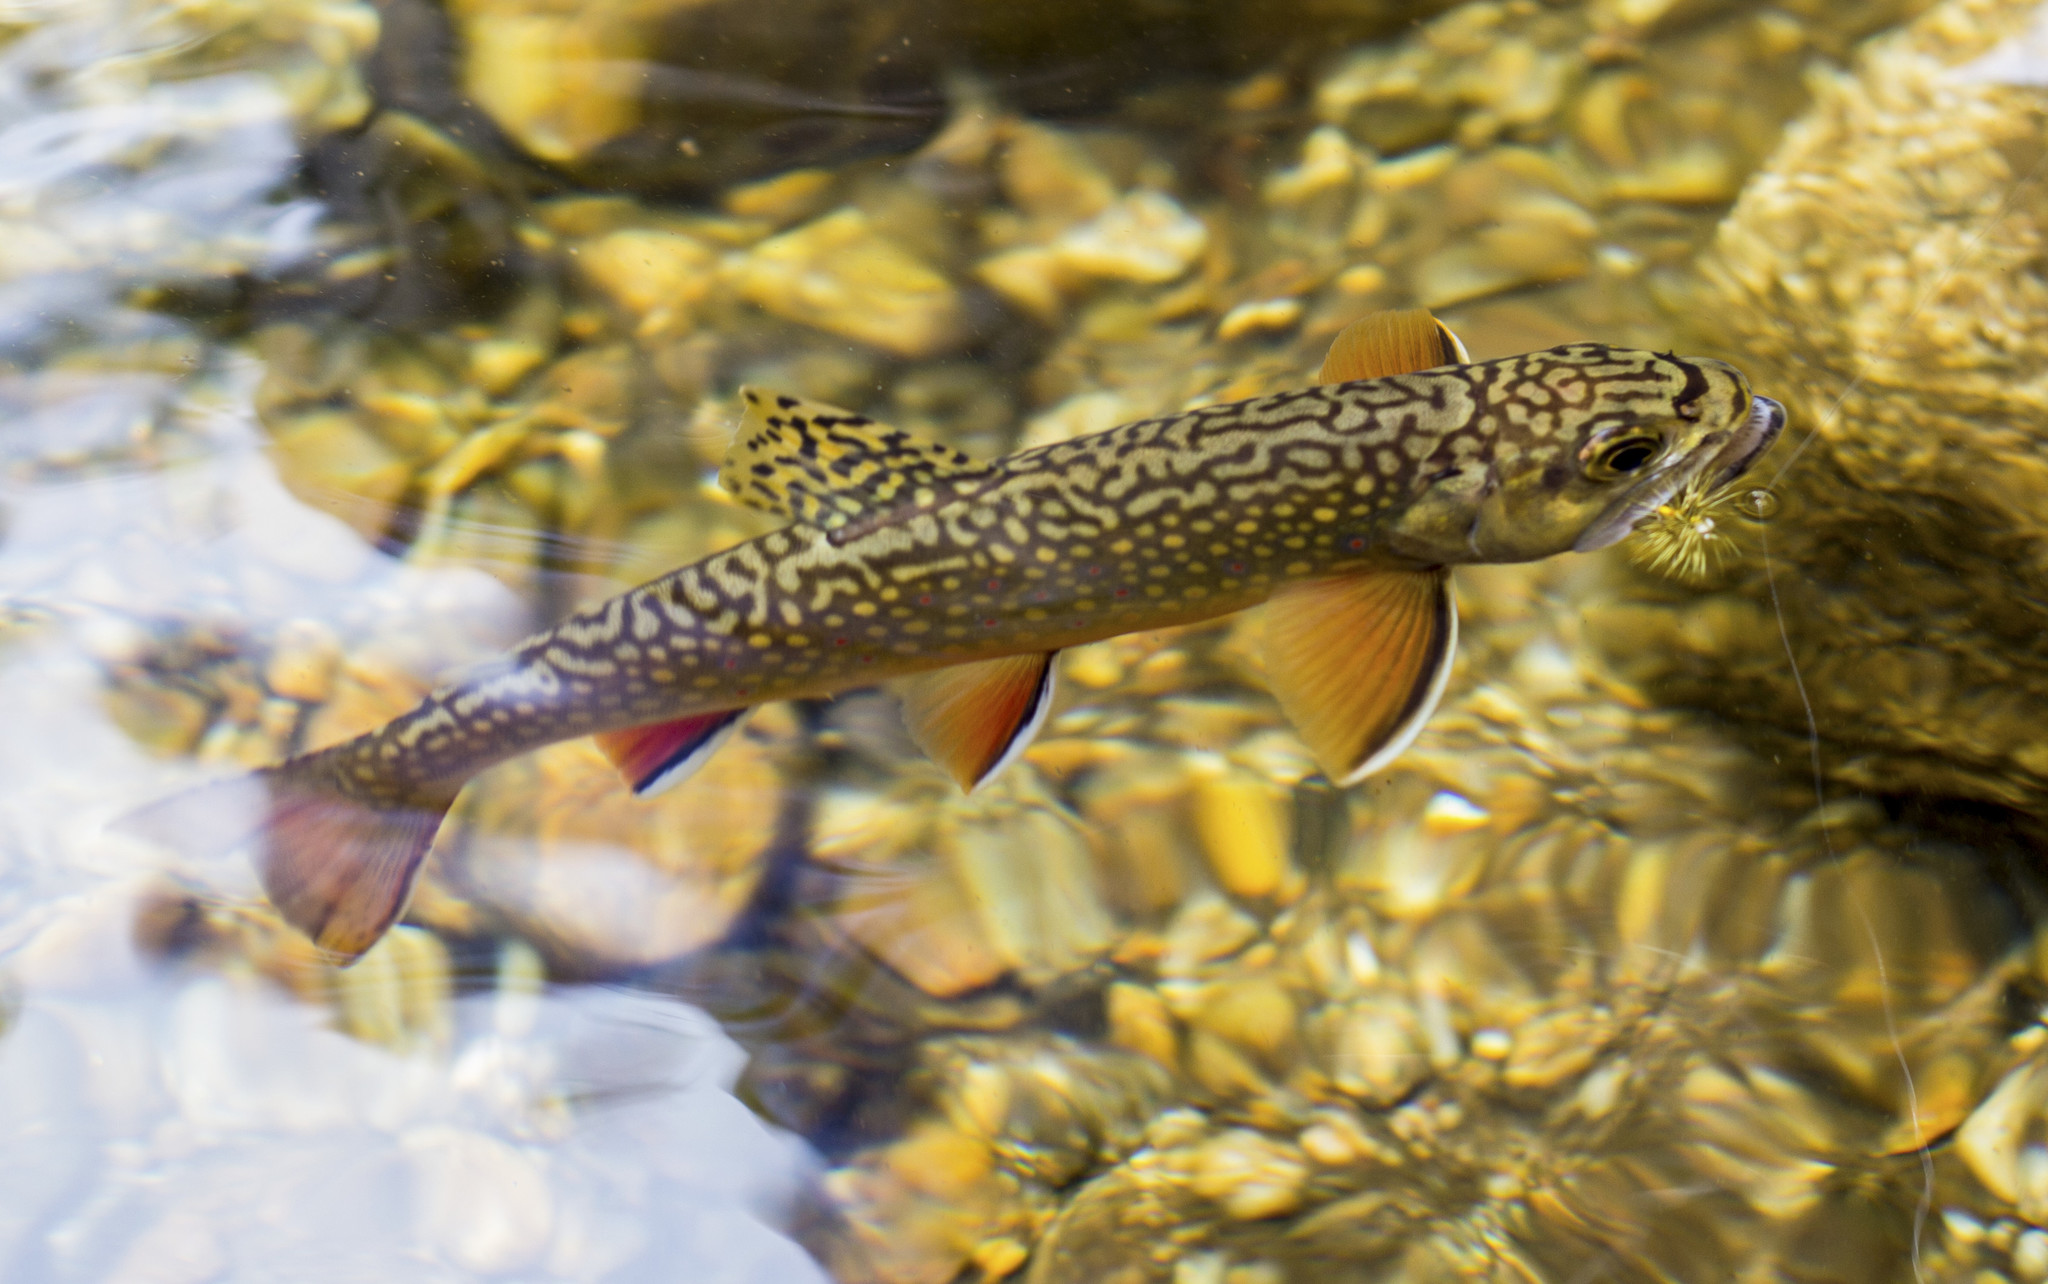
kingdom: Animalia
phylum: Chordata
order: Salmoniformes
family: Salmonidae
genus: Salvelinus
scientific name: Salvelinus fontinalis
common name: Brook trout
